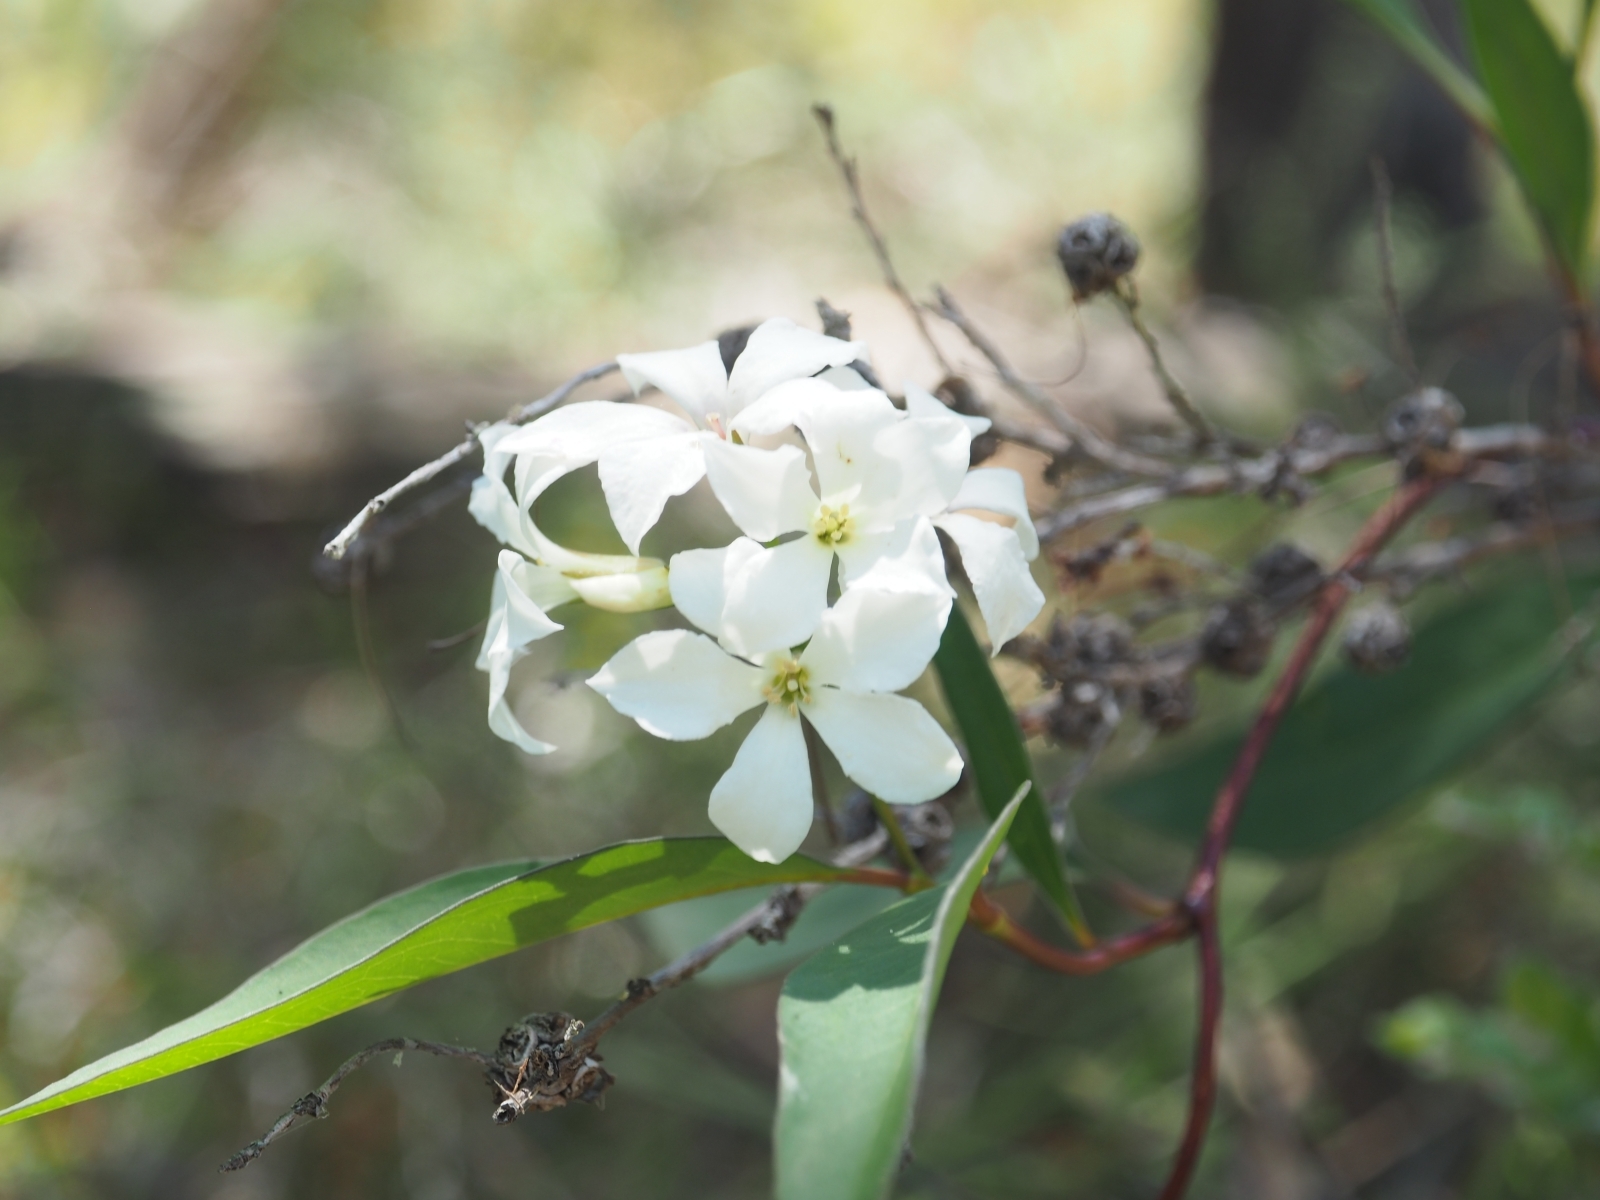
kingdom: Plantae
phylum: Tracheophyta
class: Magnoliopsida
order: Apiales
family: Pittosporaceae
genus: Billardiera
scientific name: Billardiera floribunda
